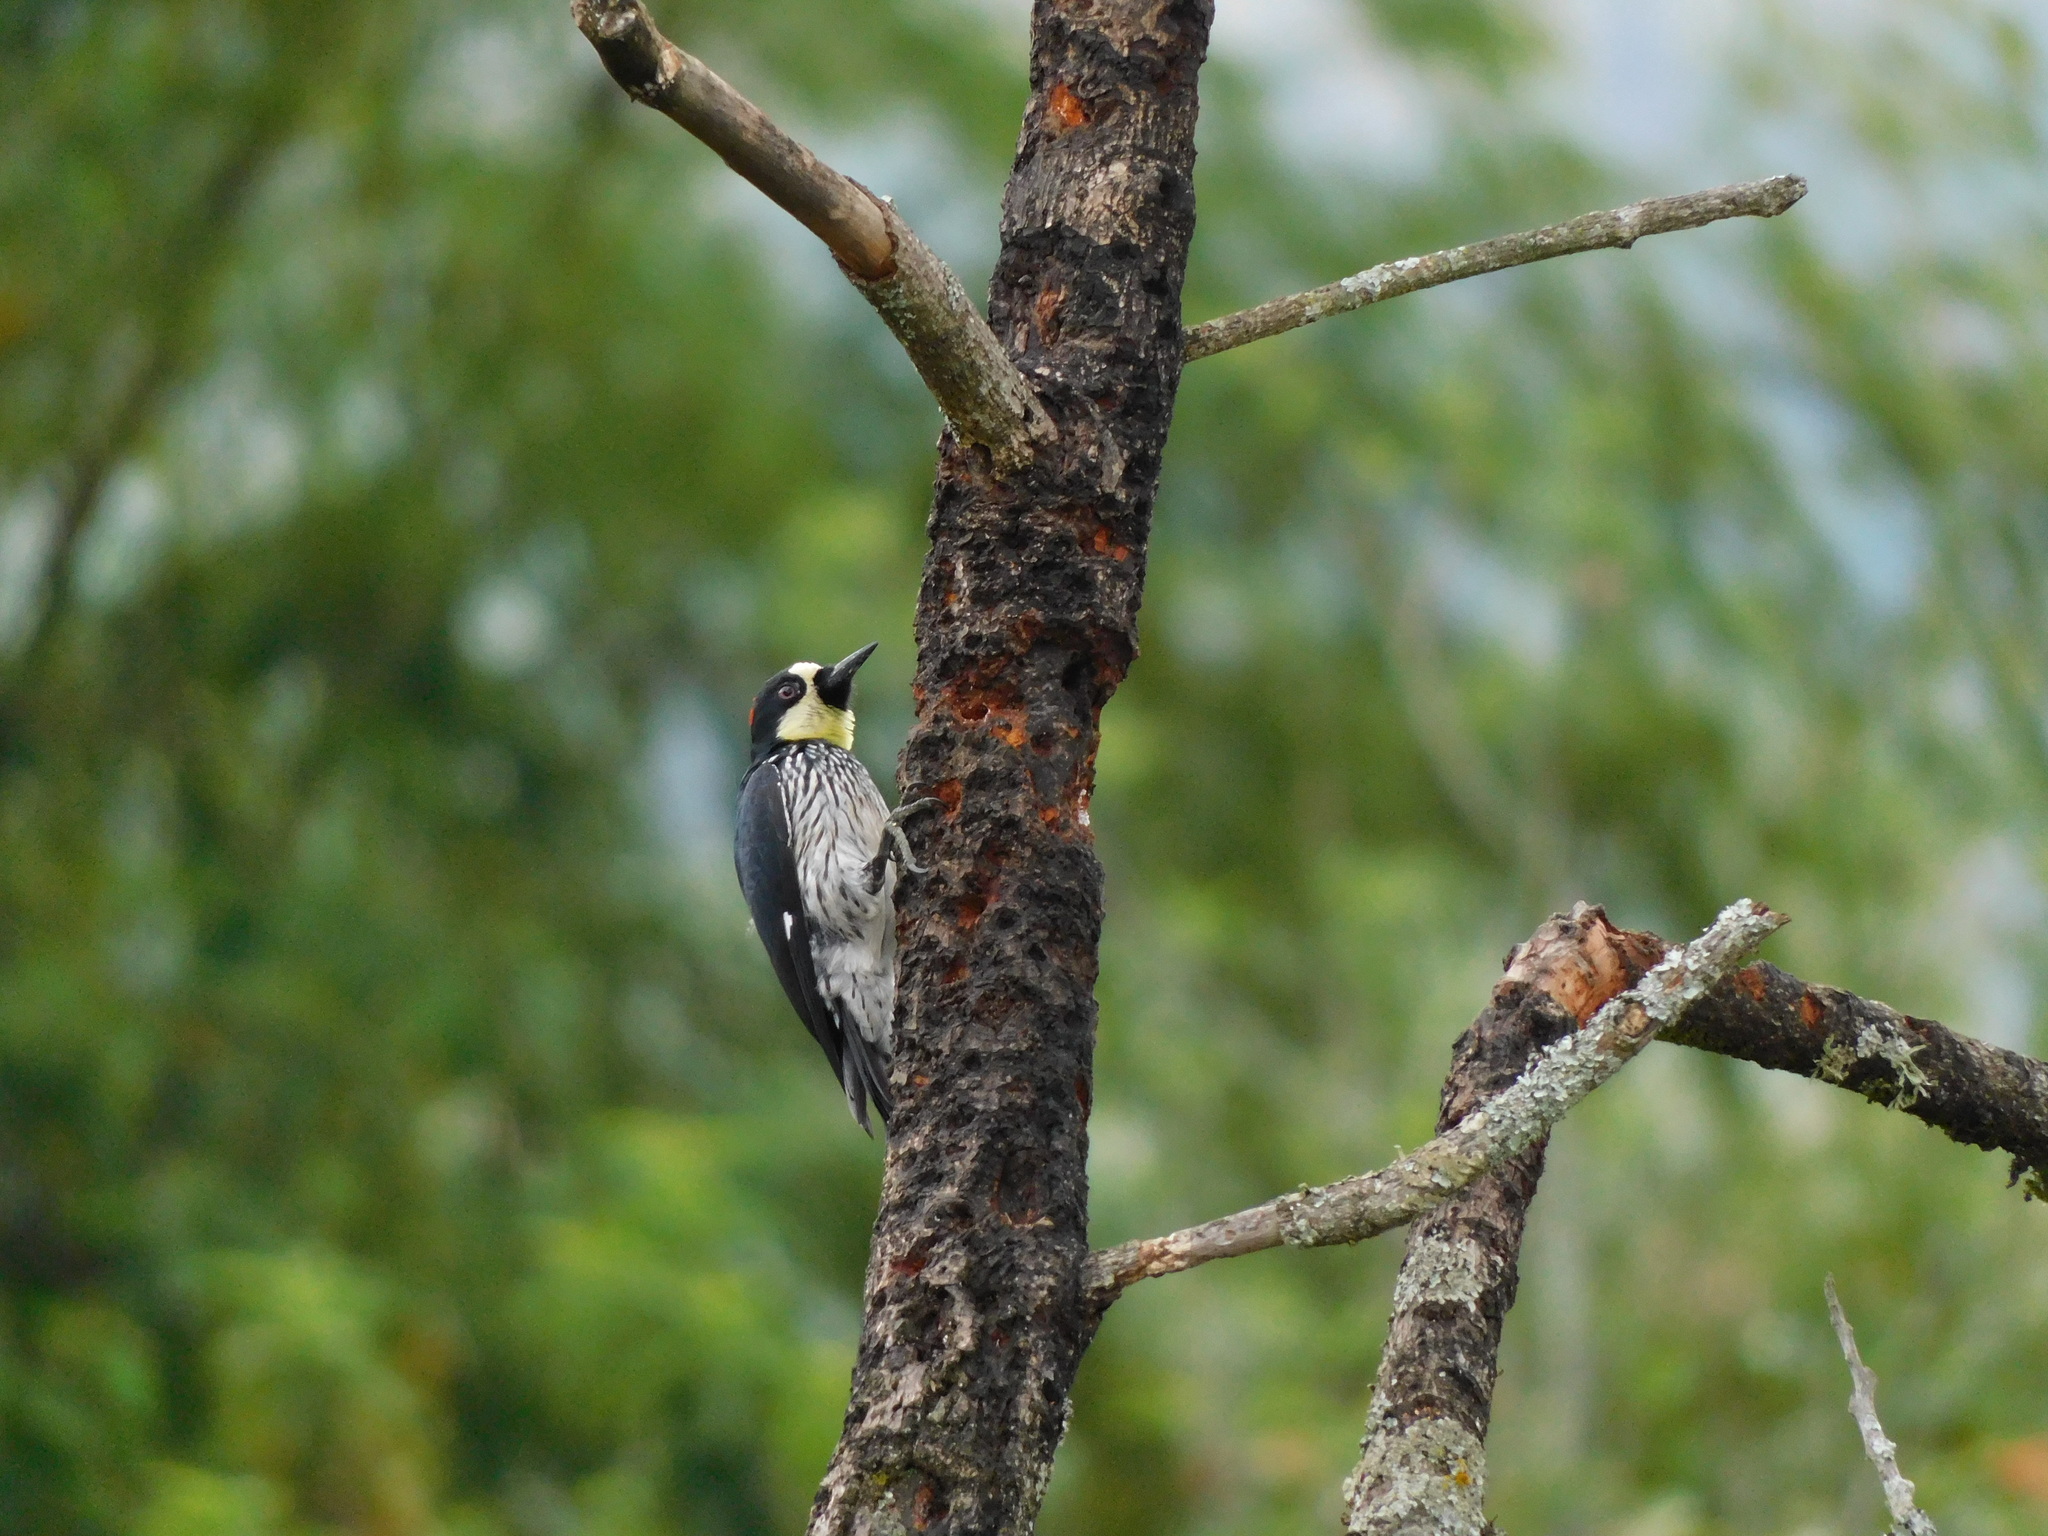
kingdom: Animalia
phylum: Chordata
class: Aves
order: Piciformes
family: Picidae
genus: Melanerpes
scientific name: Melanerpes formicivorus
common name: Acorn woodpecker
